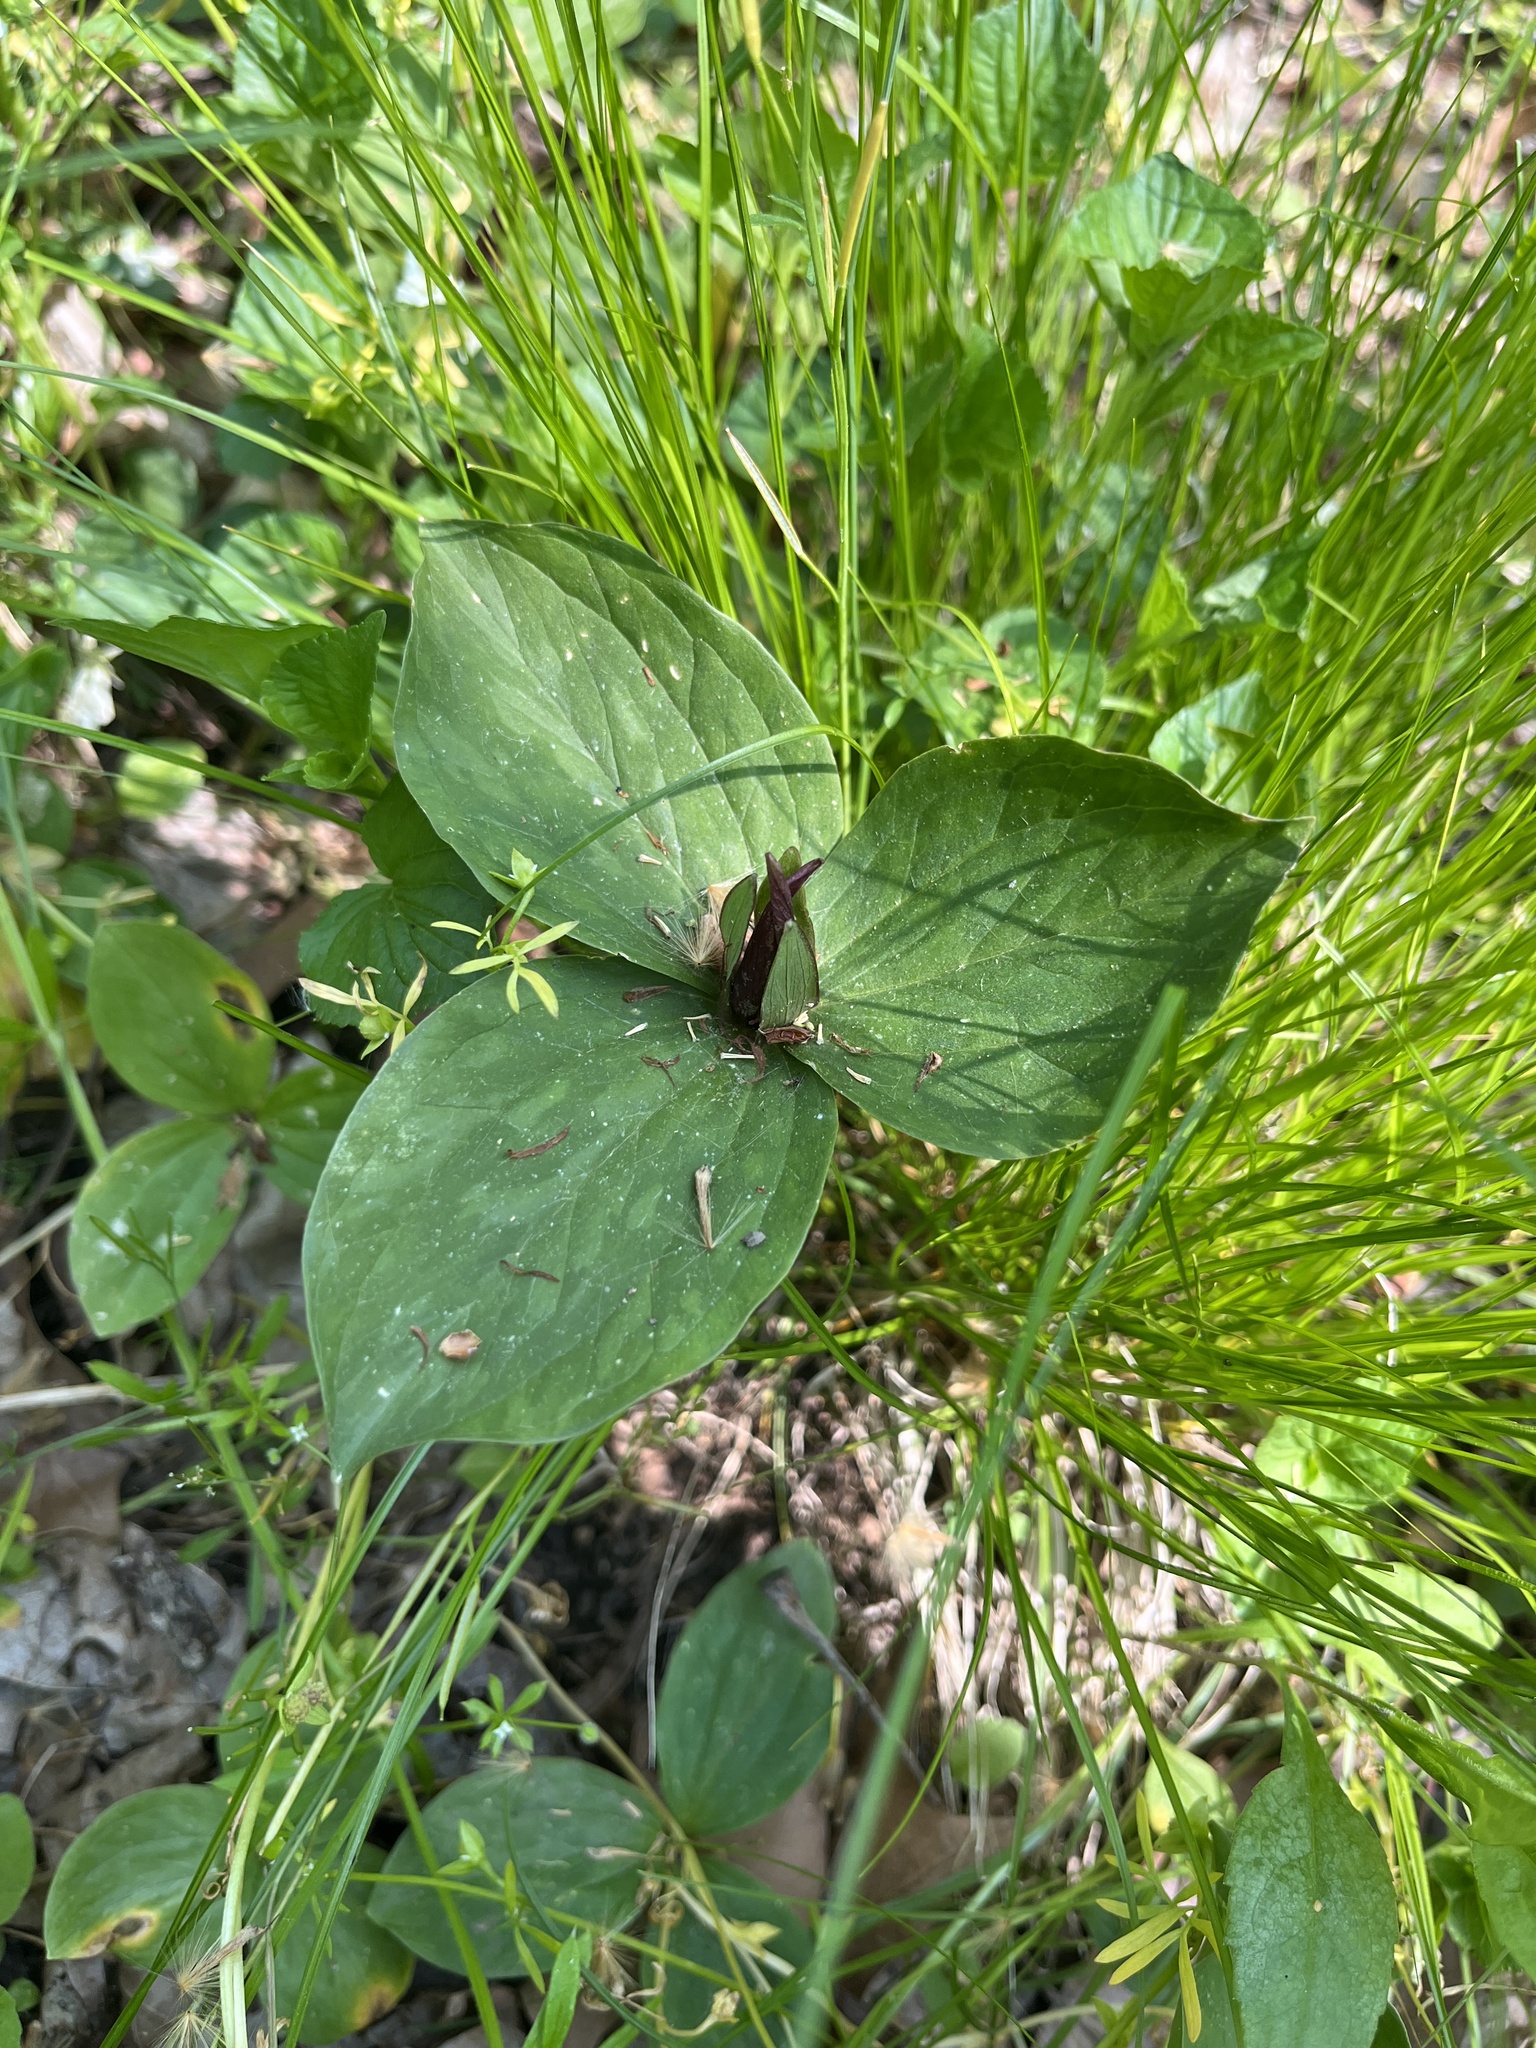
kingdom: Plantae
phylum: Tracheophyta
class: Liliopsida
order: Liliales
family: Melanthiaceae
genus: Trillium
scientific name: Trillium sessile
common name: Sessile trillium
